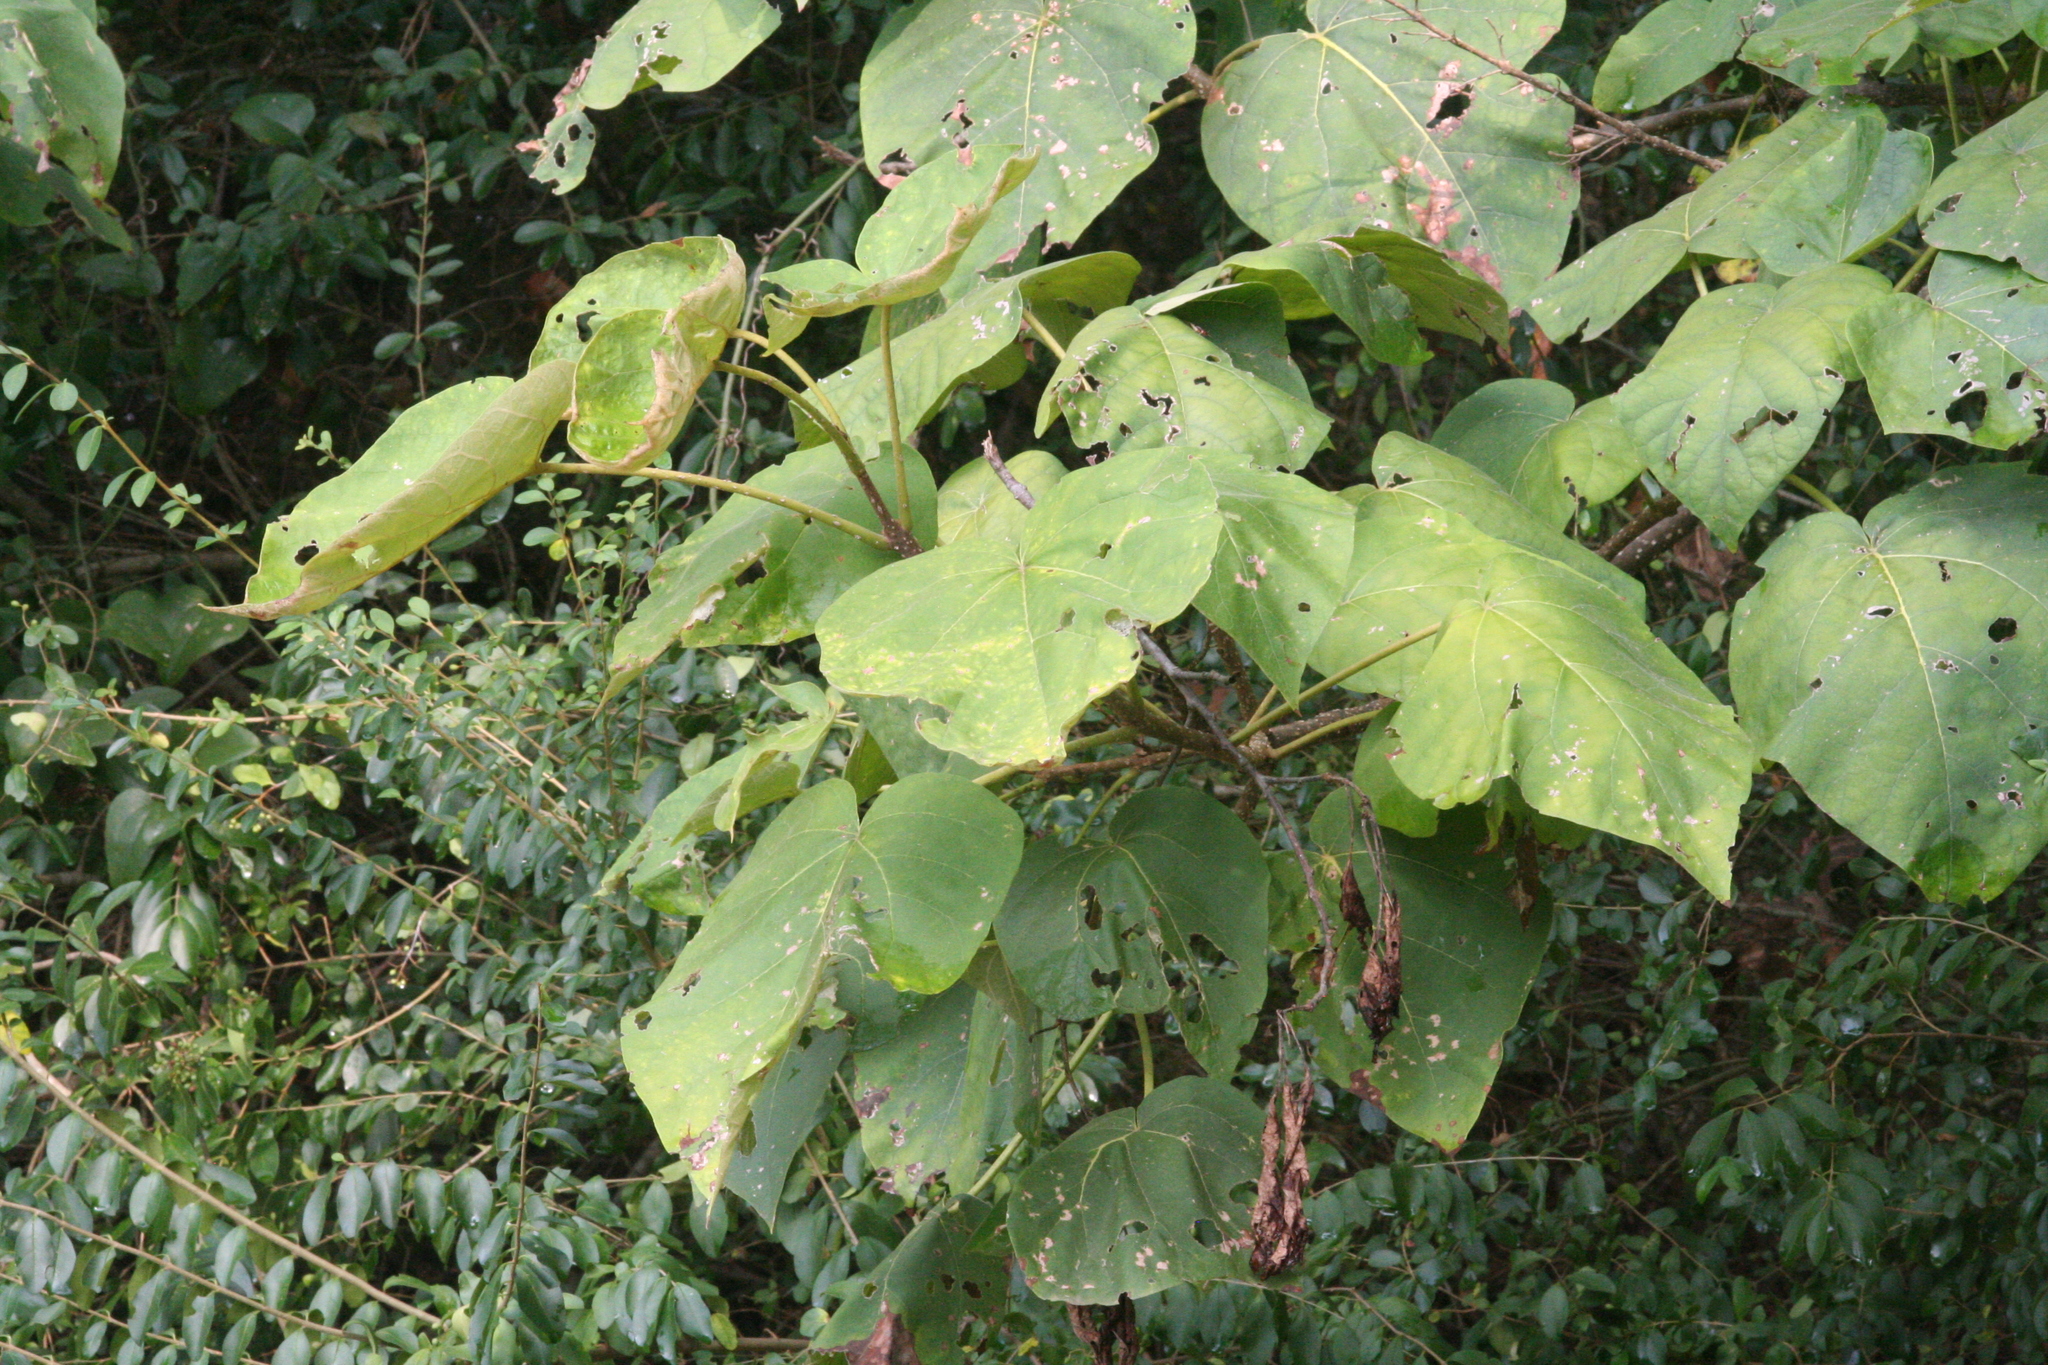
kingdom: Plantae
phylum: Tracheophyta
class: Magnoliopsida
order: Lamiales
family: Paulowniaceae
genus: Paulownia
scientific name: Paulownia tomentosa
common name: Foxglove-tree
